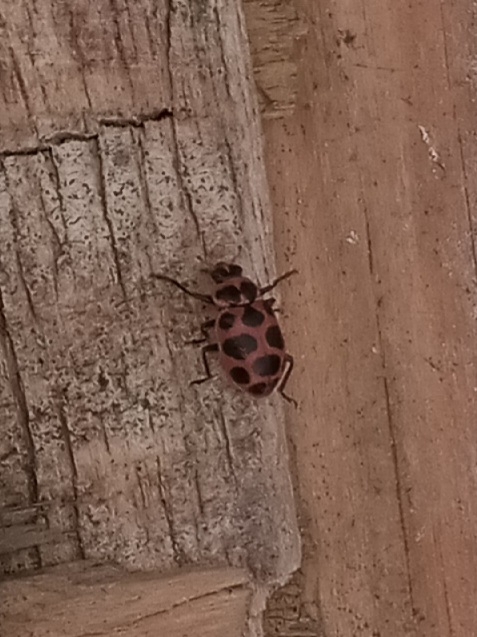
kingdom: Animalia
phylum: Arthropoda
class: Insecta
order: Coleoptera
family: Coccinellidae
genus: Coleomegilla
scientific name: Coleomegilla maculata
